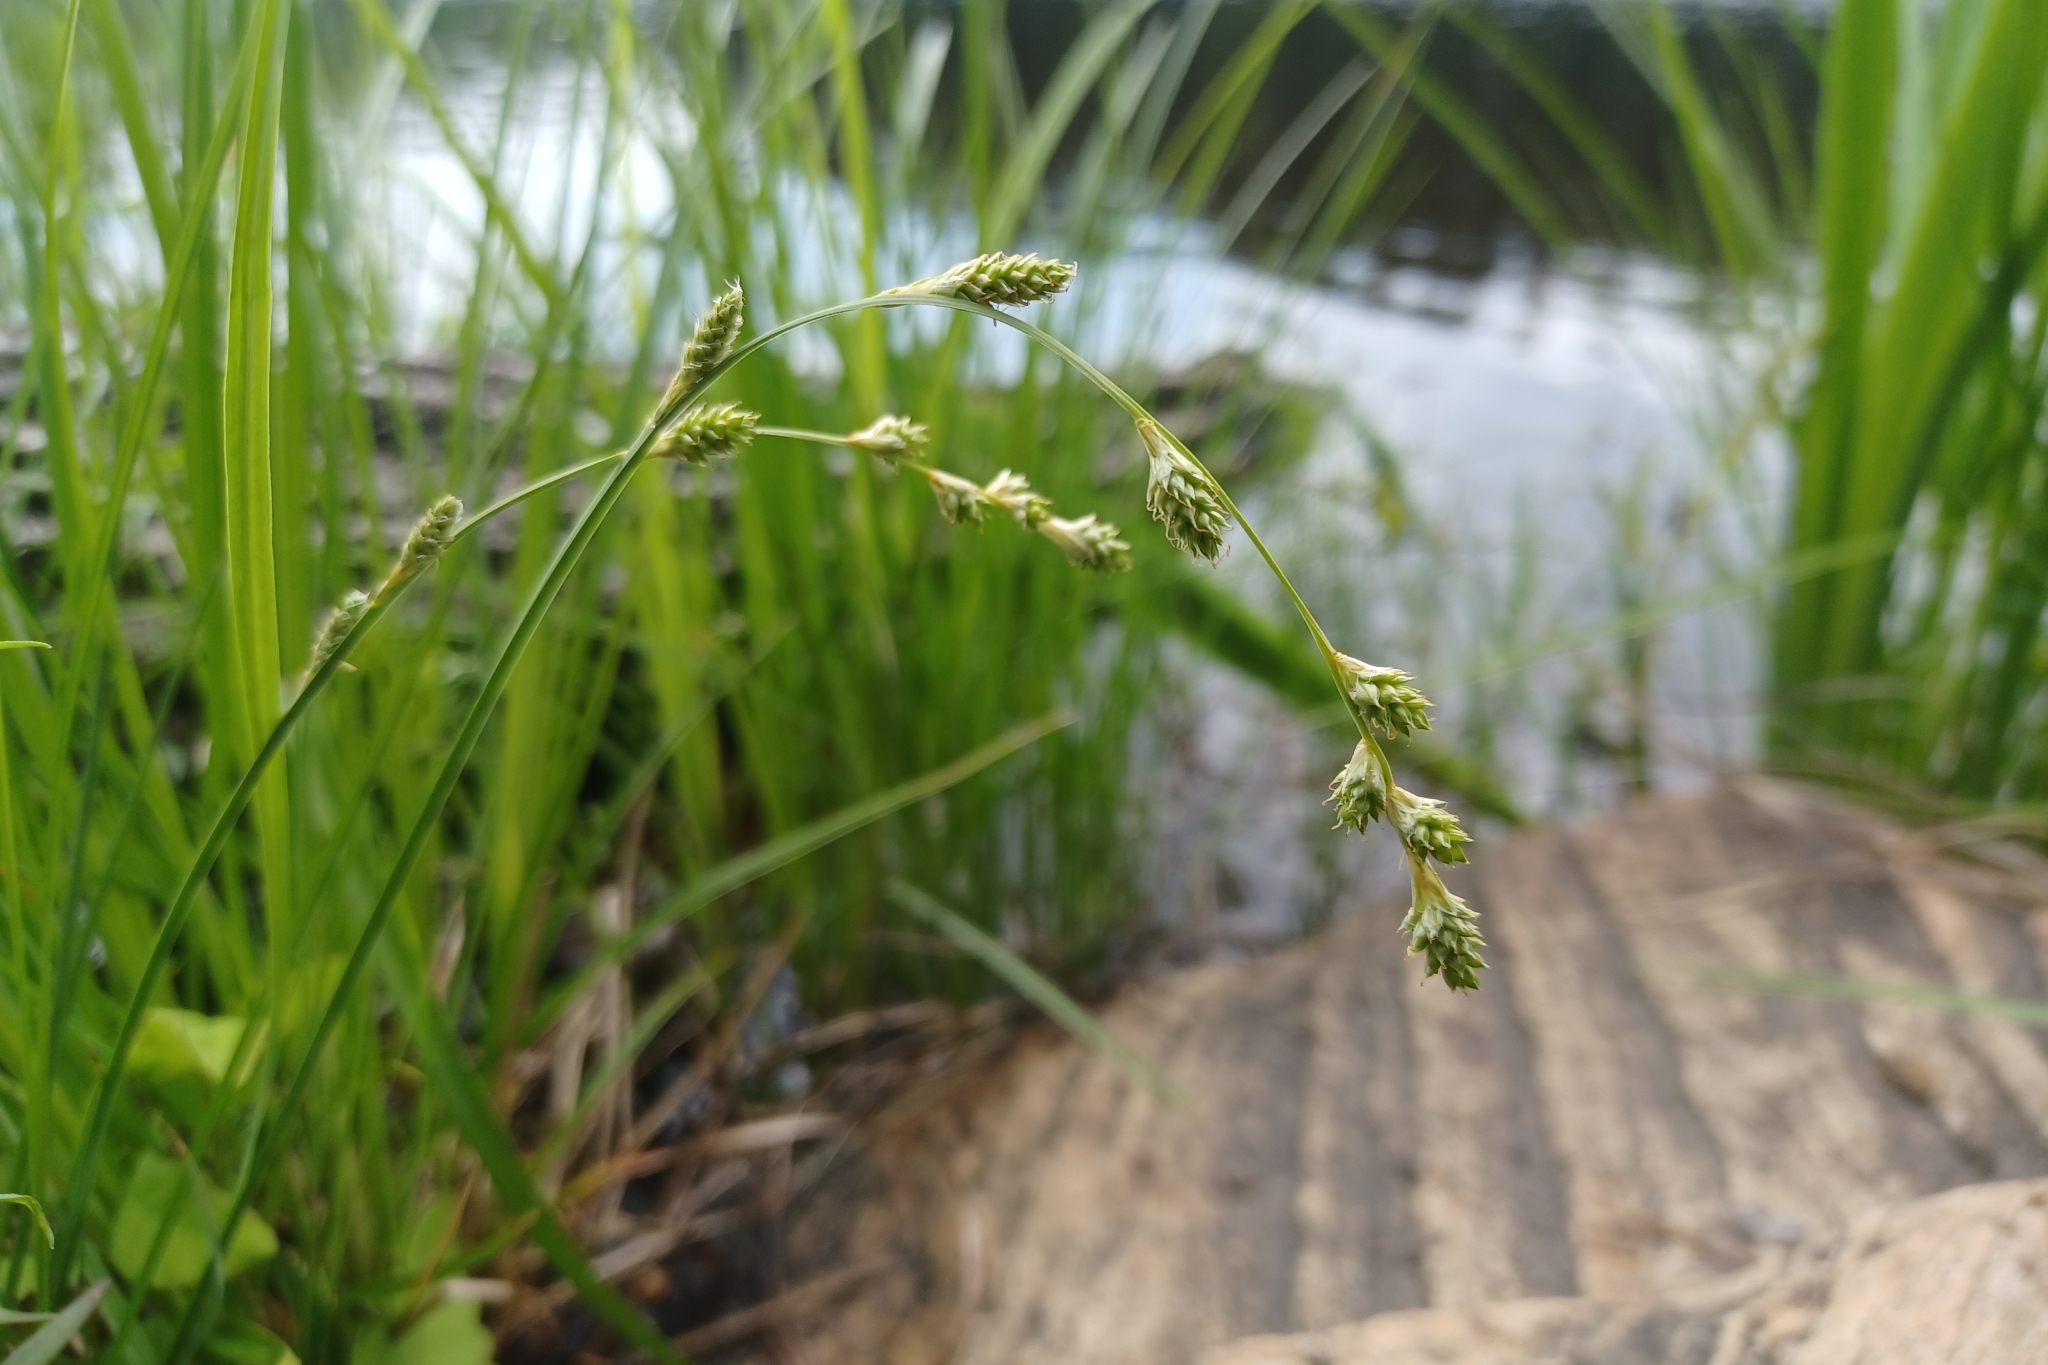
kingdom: Plantae
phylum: Tracheophyta
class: Liliopsida
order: Poales
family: Cyperaceae
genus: Carex
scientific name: Carex canescens
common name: White sedge
